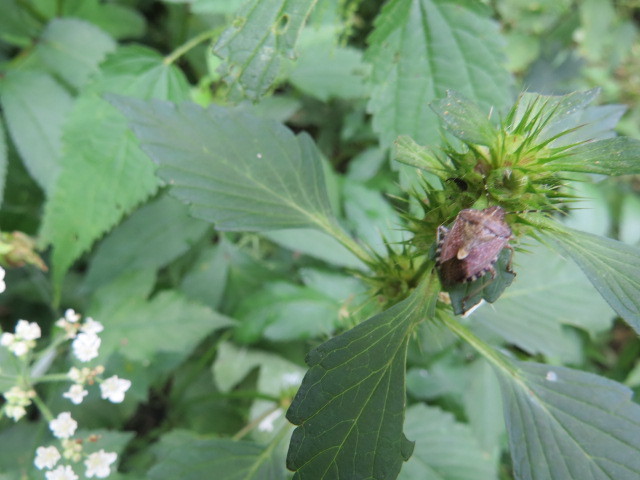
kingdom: Animalia
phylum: Arthropoda
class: Insecta
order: Hemiptera
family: Pentatomidae
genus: Dolycoris
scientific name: Dolycoris baccarum
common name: Sloe bug
